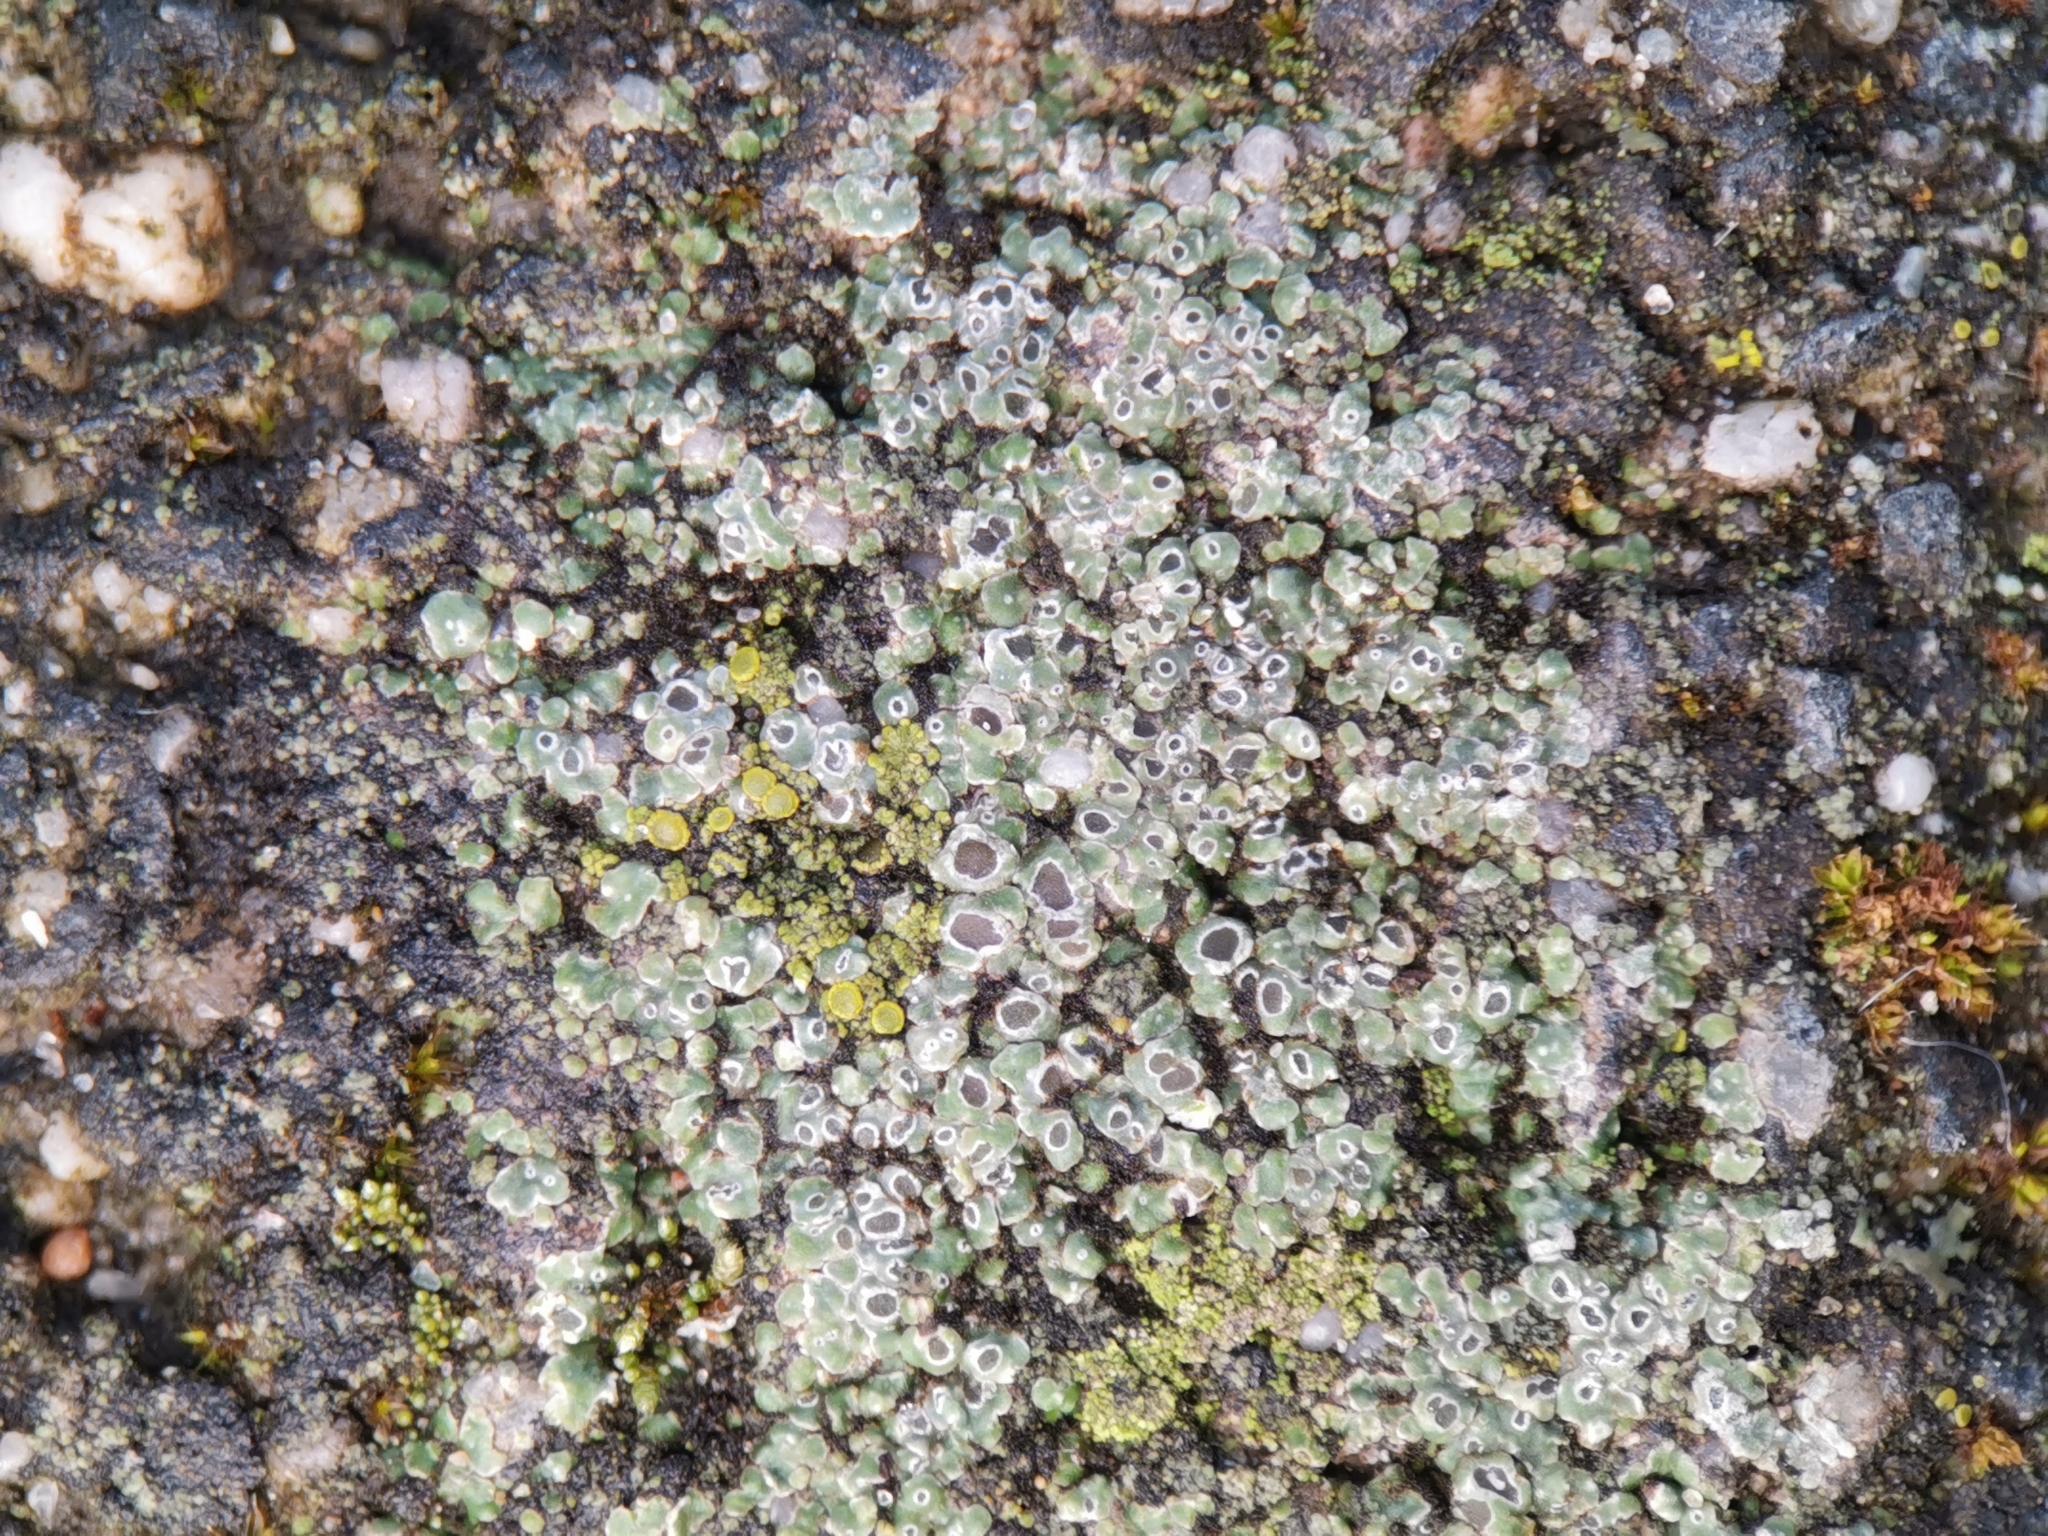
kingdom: Fungi
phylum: Ascomycota
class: Lecanoromycetes
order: Pertusariales
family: Megasporaceae
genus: Circinaria
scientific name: Circinaria contorta
